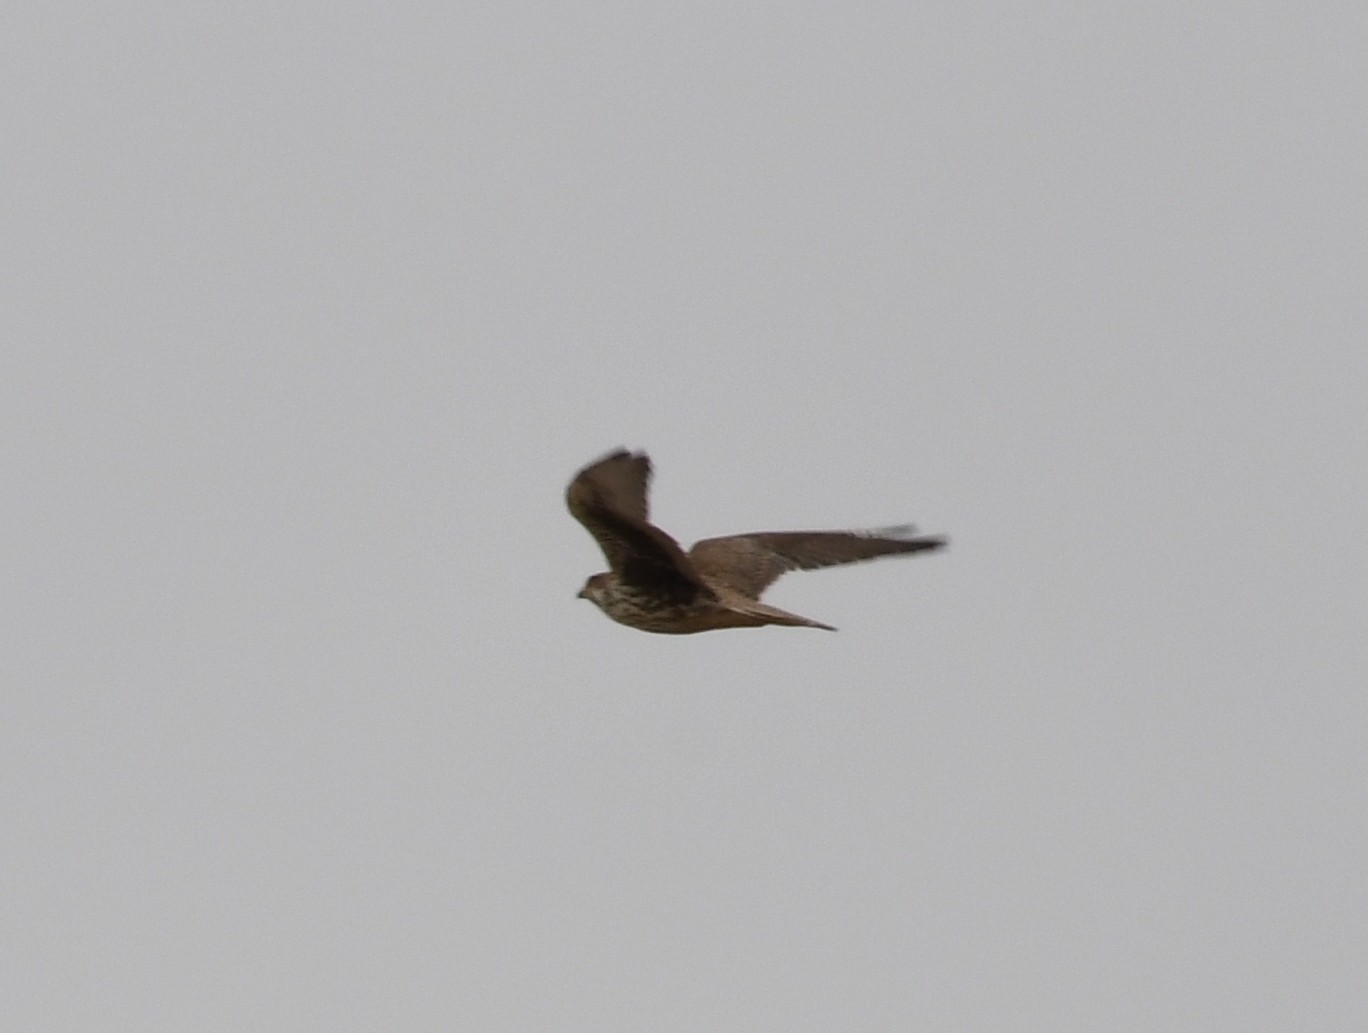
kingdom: Animalia
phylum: Chordata
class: Aves
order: Falconiformes
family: Falconidae
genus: Falco
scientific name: Falco mexicanus
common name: Prairie falcon
